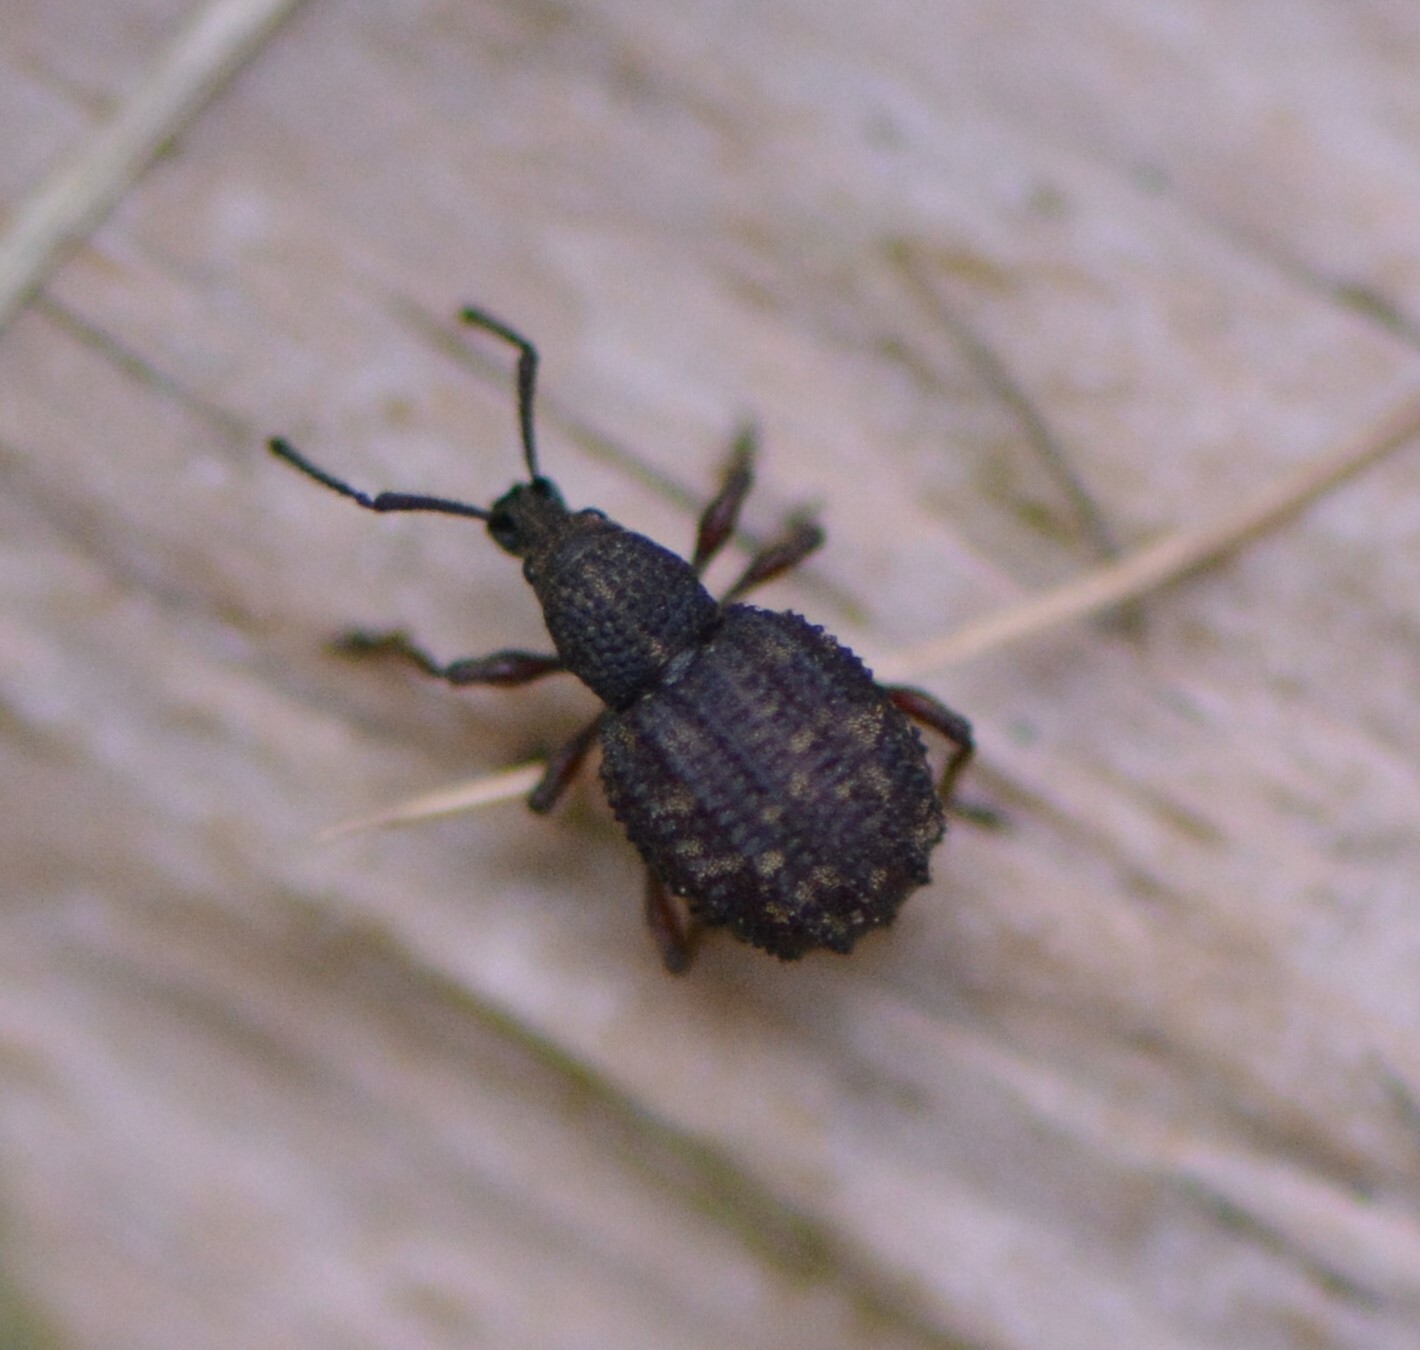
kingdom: Animalia
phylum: Arthropoda
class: Insecta
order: Coleoptera
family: Curculionidae
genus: Otiorhynchus
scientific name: Otiorhynchus porcatus
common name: Weevil
